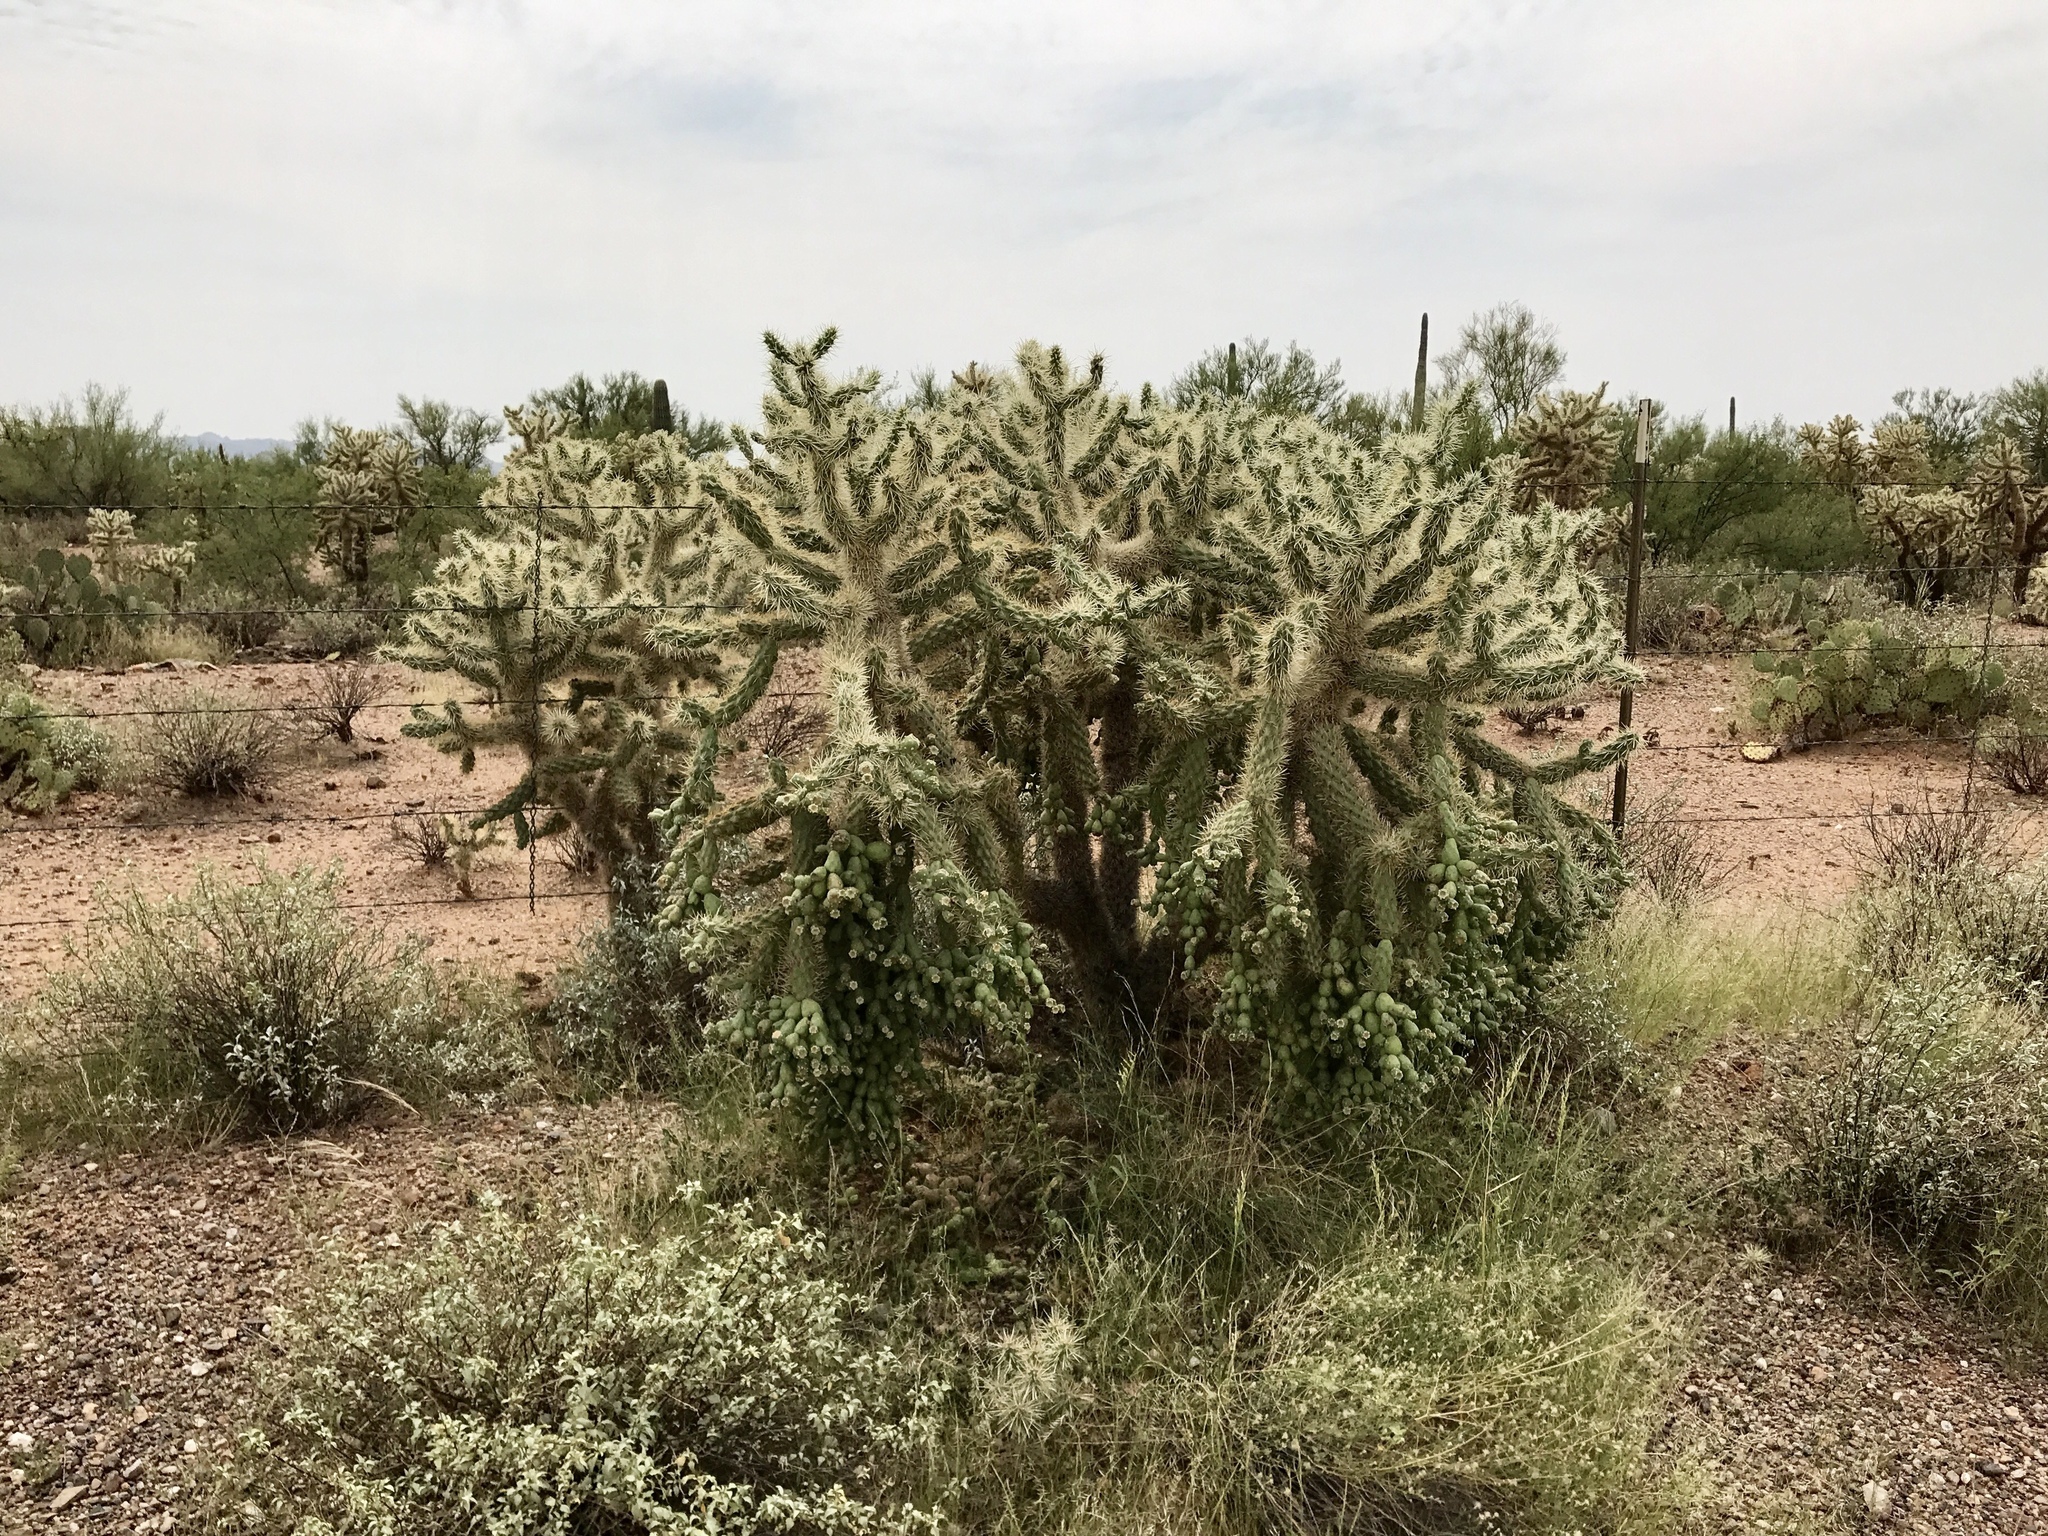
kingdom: Plantae
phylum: Tracheophyta
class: Magnoliopsida
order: Caryophyllales
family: Cactaceae
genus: Cylindropuntia
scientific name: Cylindropuntia fulgida
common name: Jumping cholla
